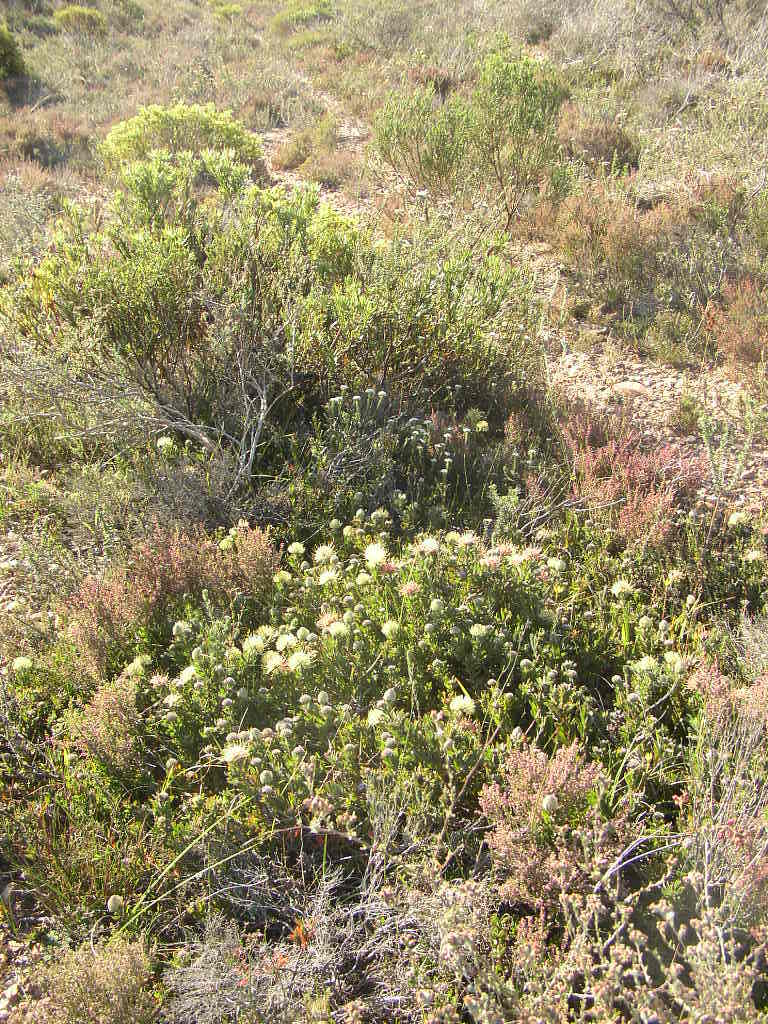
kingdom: Plantae
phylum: Tracheophyta
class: Magnoliopsida
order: Proteales
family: Proteaceae
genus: Leucospermum
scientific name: Leucospermum heterophyllum
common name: Trident pincushion
